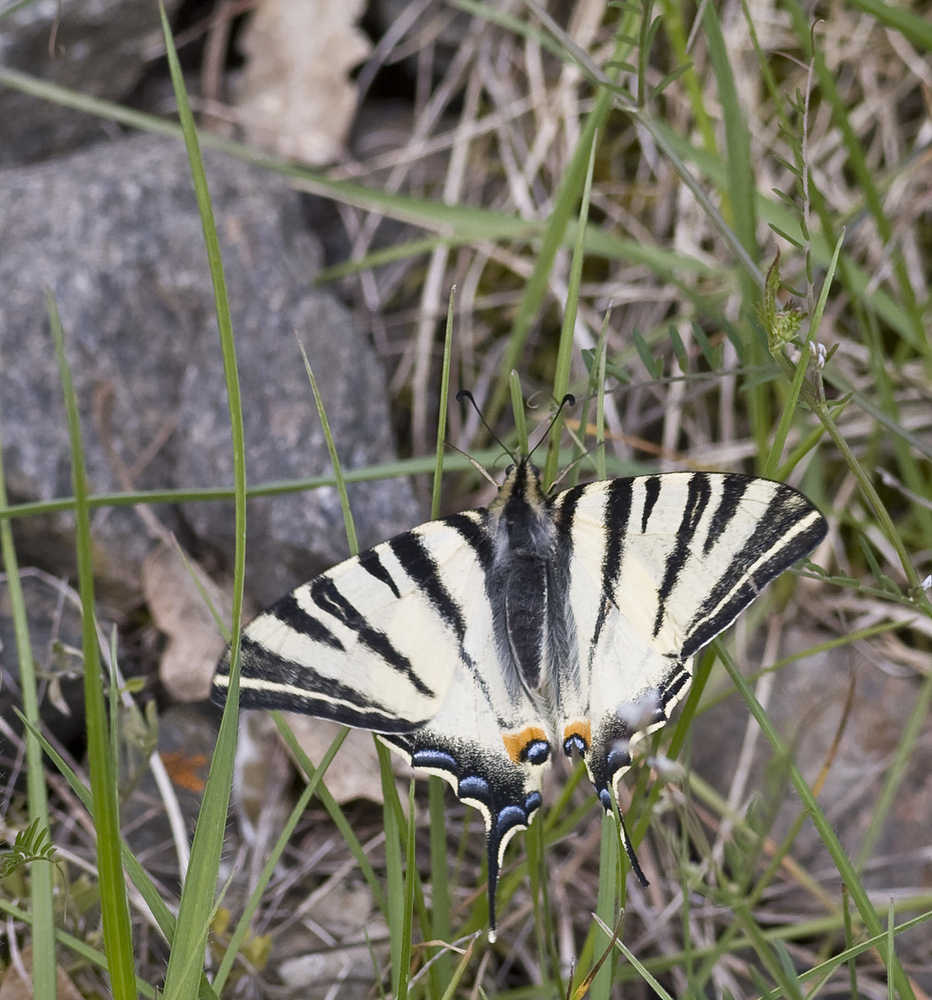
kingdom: Animalia
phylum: Arthropoda
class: Insecta
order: Lepidoptera
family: Papilionidae
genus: Iphiclides
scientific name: Iphiclides podalirius
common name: Scarce swallowtail
